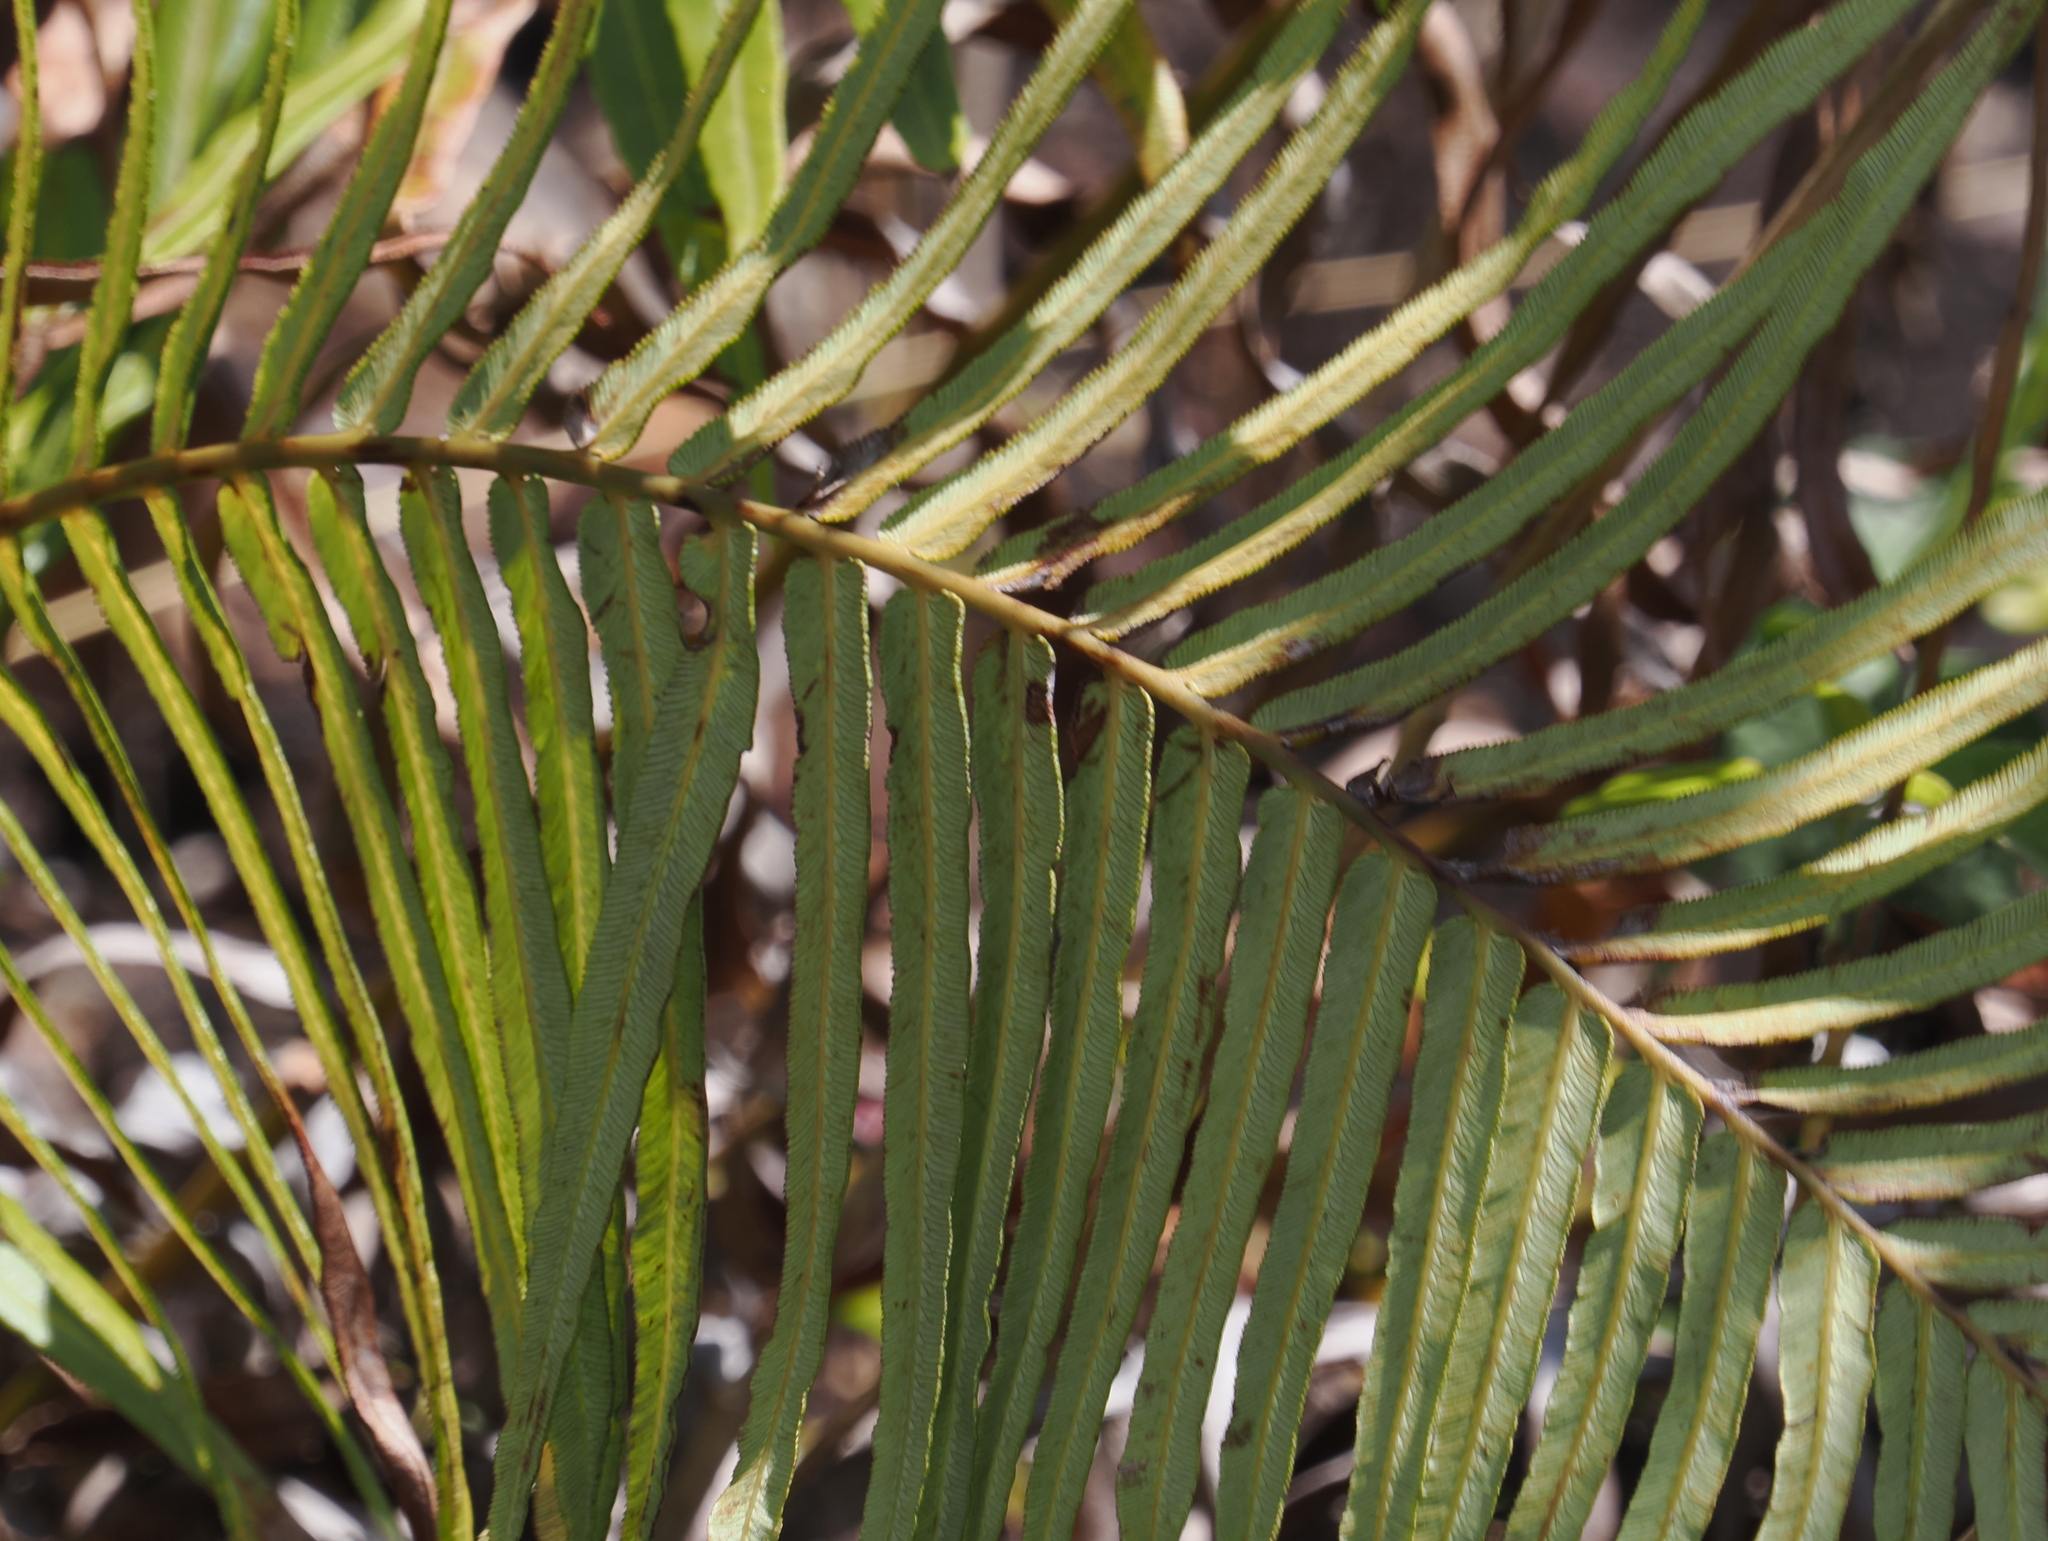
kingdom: Plantae
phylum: Tracheophyta
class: Polypodiopsida
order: Polypodiales
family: Blechnaceae
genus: Brainea
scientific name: Brainea insignis
